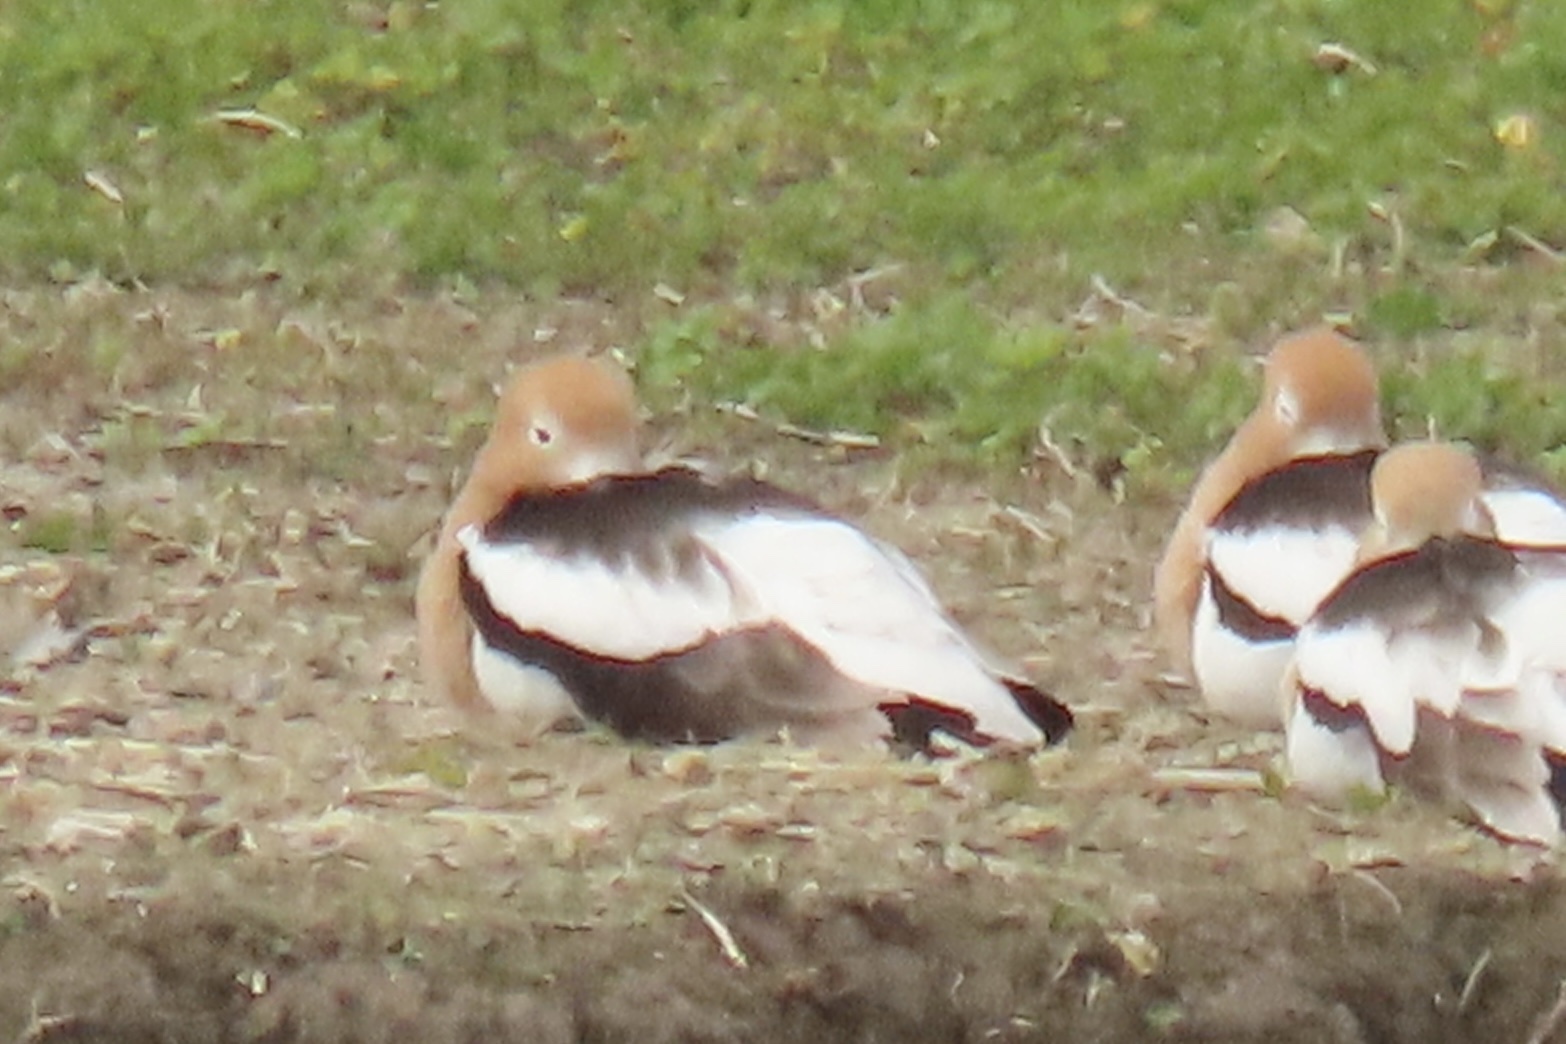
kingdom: Animalia
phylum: Chordata
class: Aves
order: Charadriiformes
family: Recurvirostridae
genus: Recurvirostra
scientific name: Recurvirostra americana
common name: American avocet
